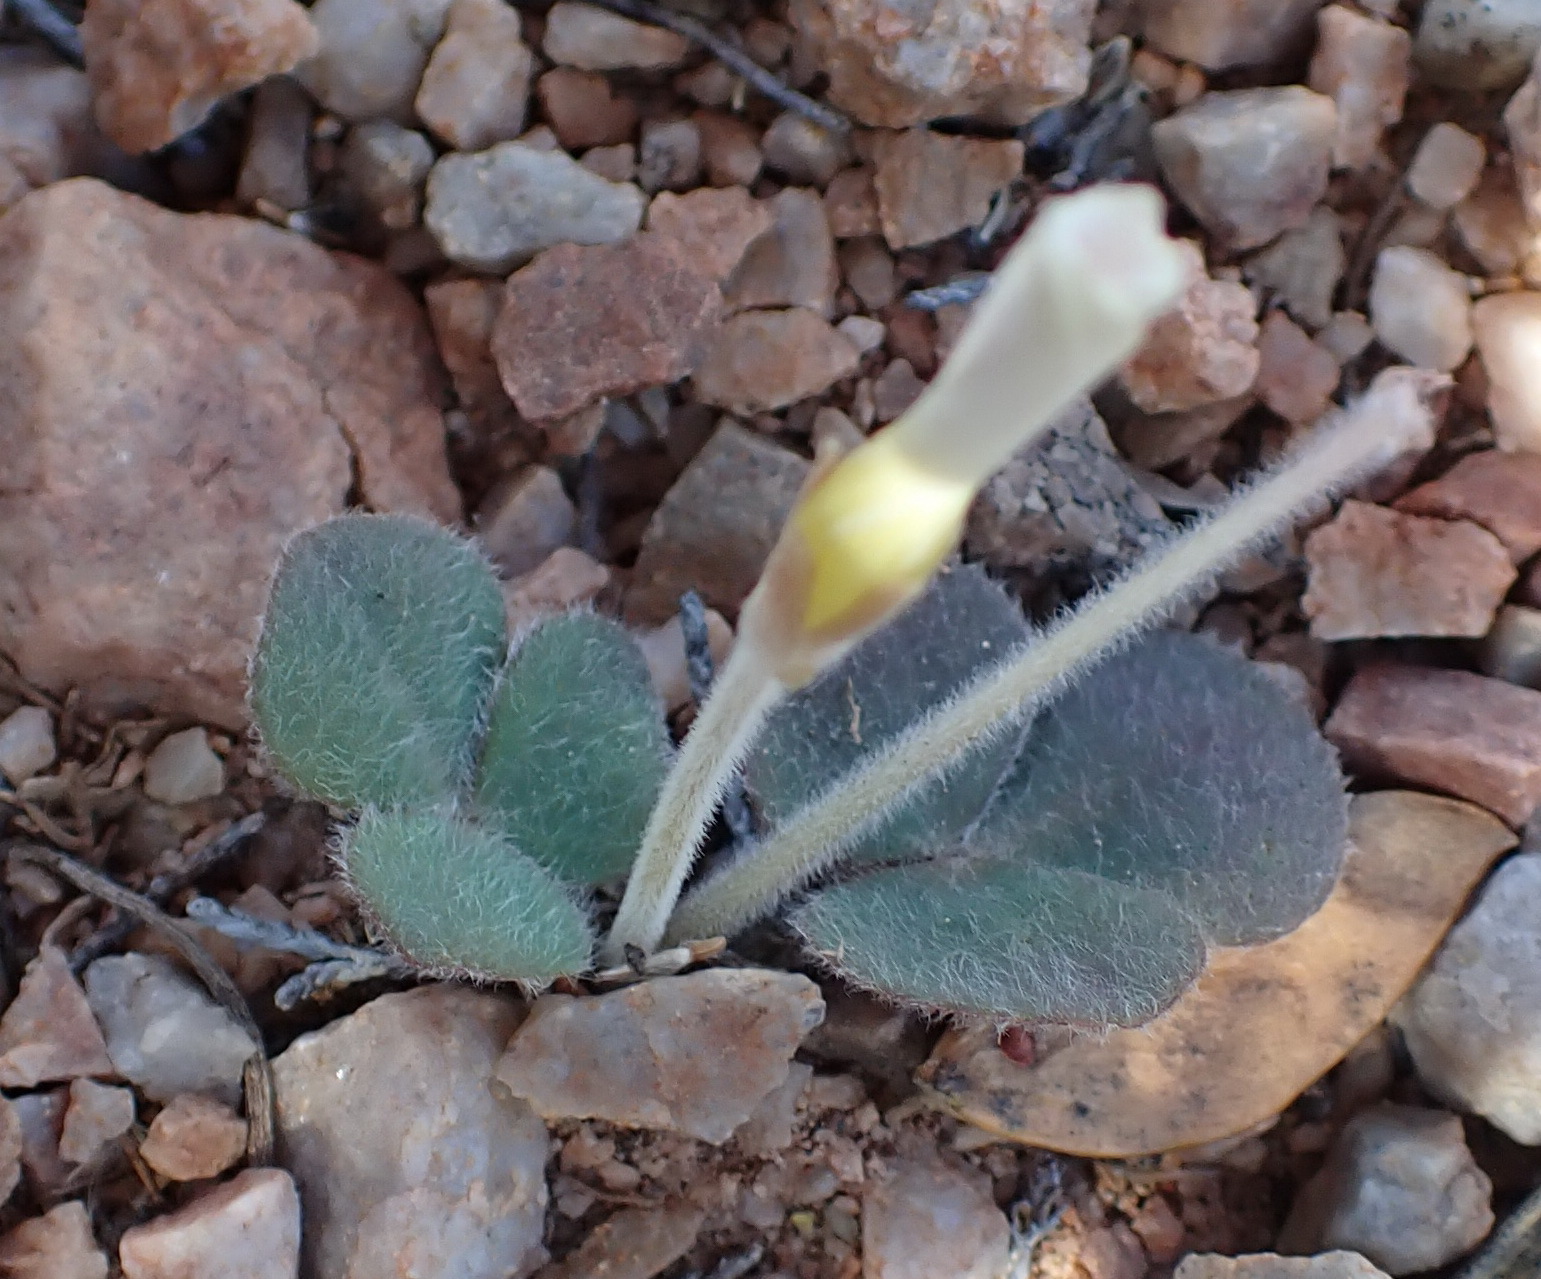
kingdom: Plantae
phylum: Tracheophyta
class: Magnoliopsida
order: Oxalidales
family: Oxalidaceae
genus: Oxalis
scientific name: Oxalis algoensis
